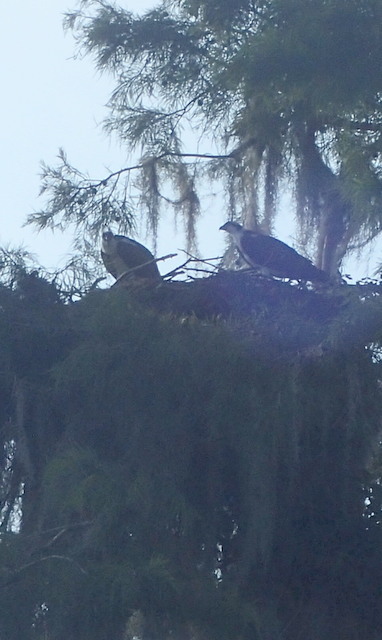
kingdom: Animalia
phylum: Chordata
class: Aves
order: Accipitriformes
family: Pandionidae
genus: Pandion
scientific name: Pandion haliaetus
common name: Osprey
